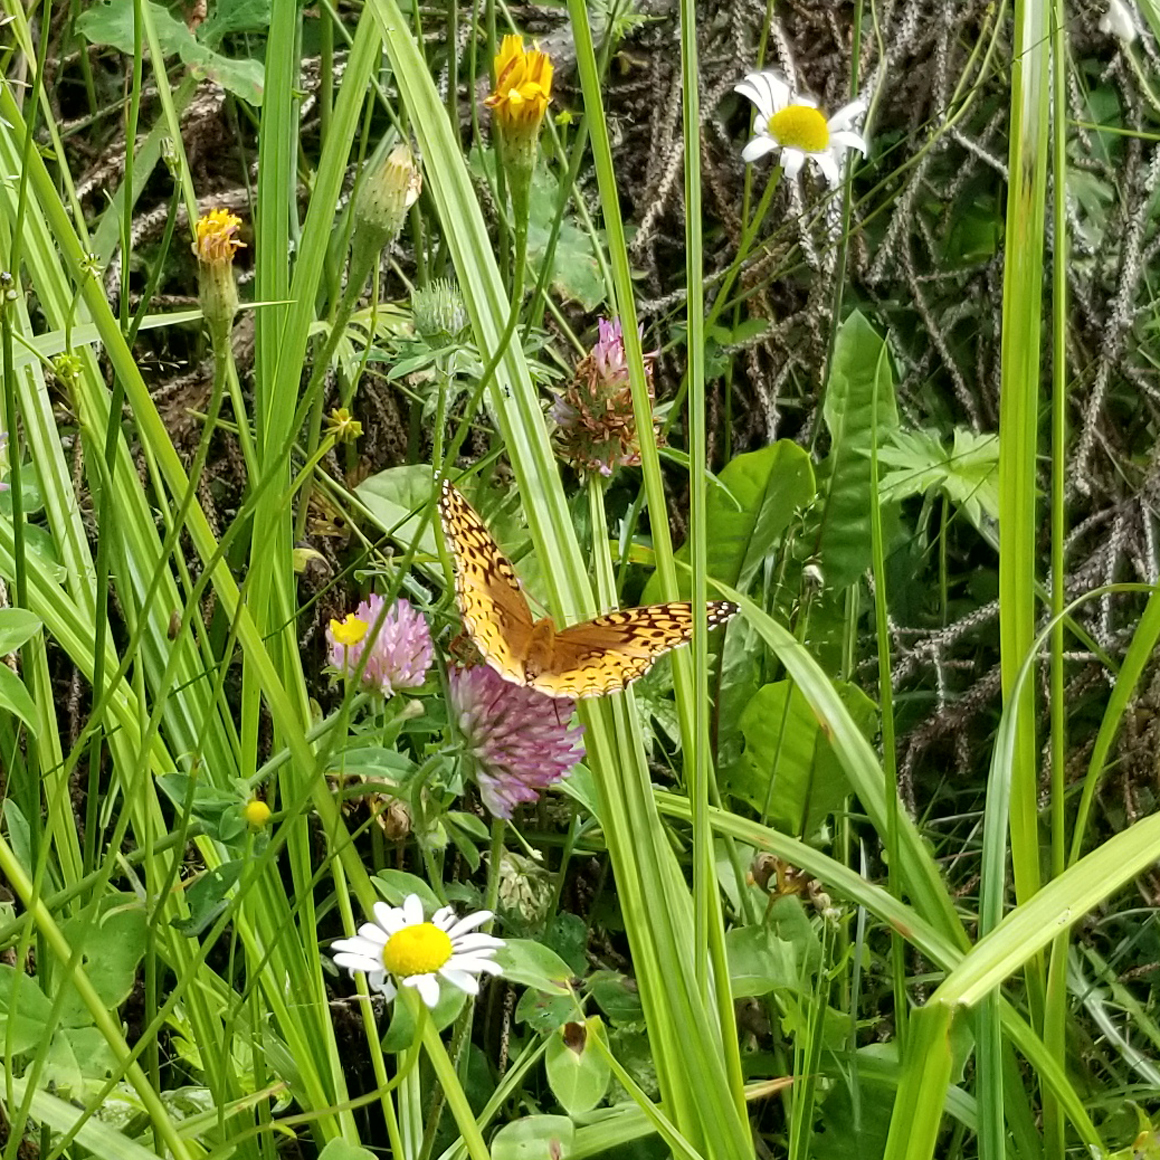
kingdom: Animalia
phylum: Arthropoda
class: Insecta
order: Lepidoptera
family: Nymphalidae
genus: Speyeria
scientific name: Speyeria cybele
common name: Great spangled fritillary
